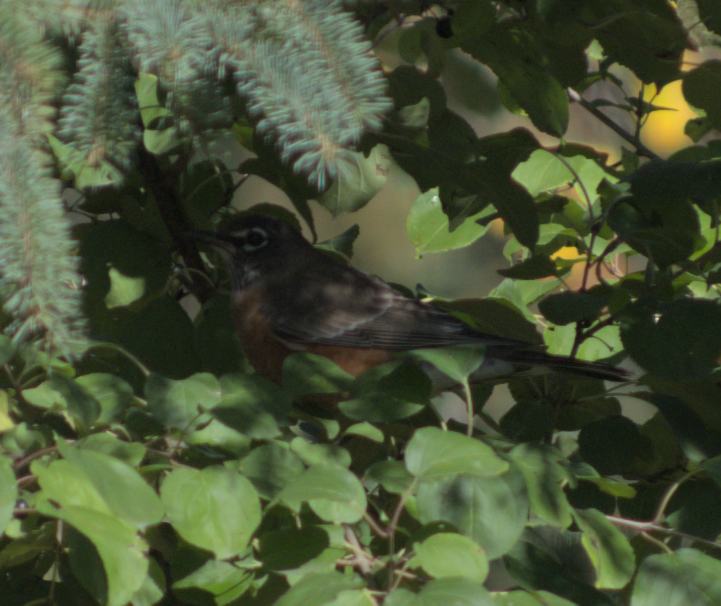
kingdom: Animalia
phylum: Chordata
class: Aves
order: Passeriformes
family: Turdidae
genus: Turdus
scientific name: Turdus migratorius
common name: American robin
